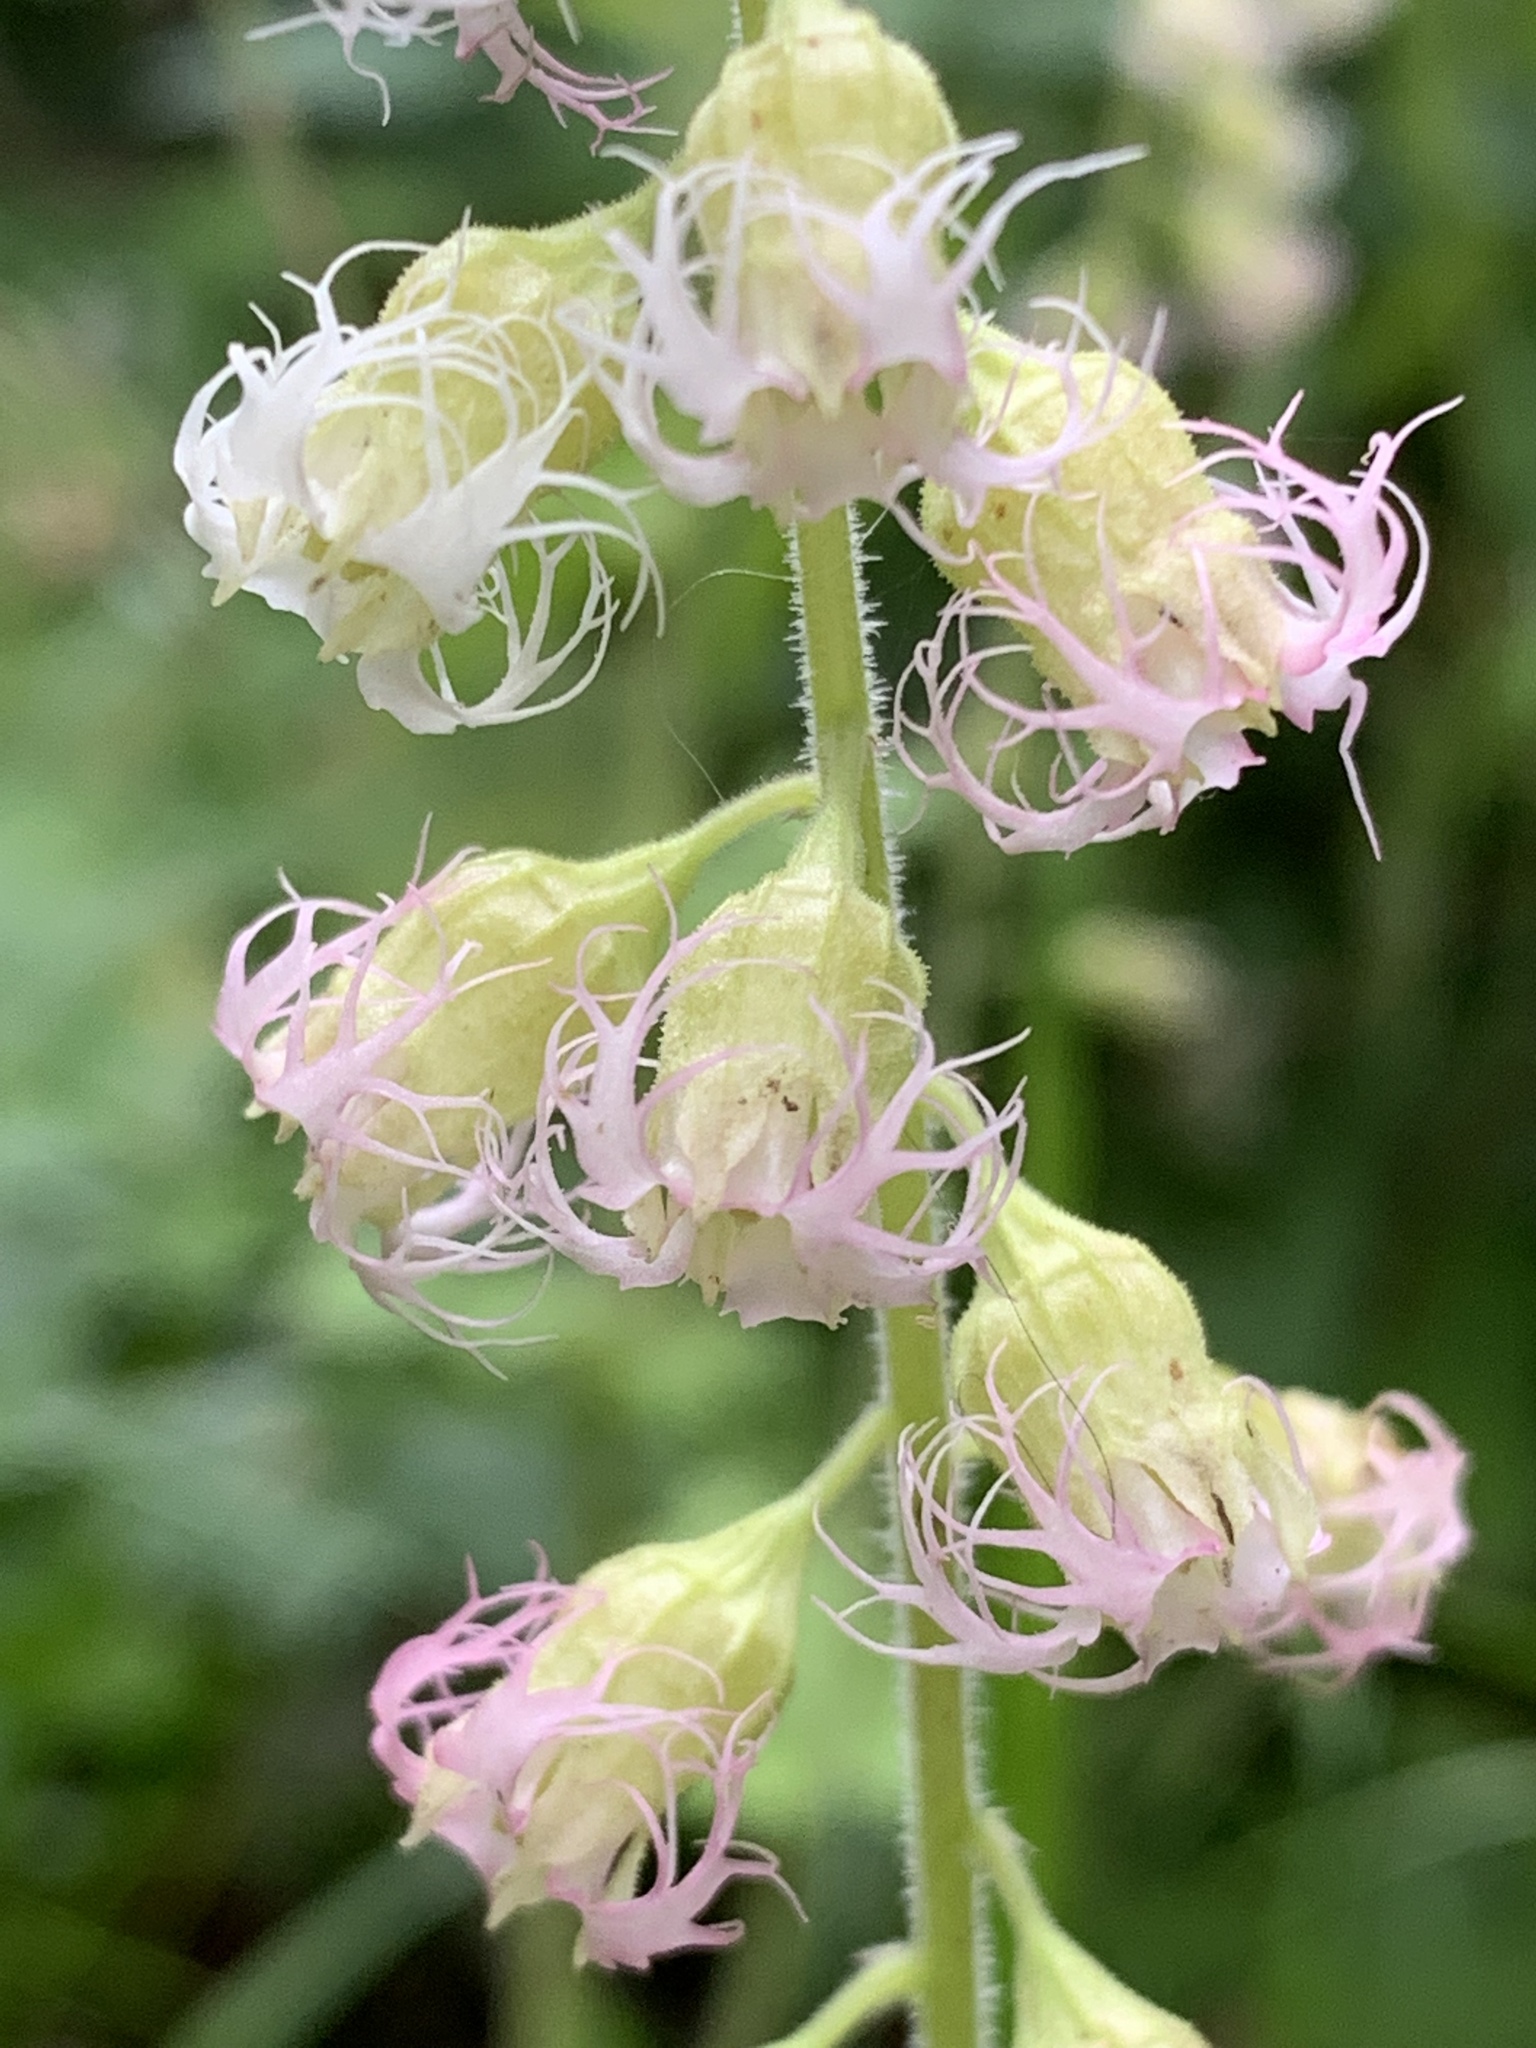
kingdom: Plantae
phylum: Tracheophyta
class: Magnoliopsida
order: Saxifragales
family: Saxifragaceae
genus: Tellima
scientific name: Tellima grandiflora
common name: Fringecups
